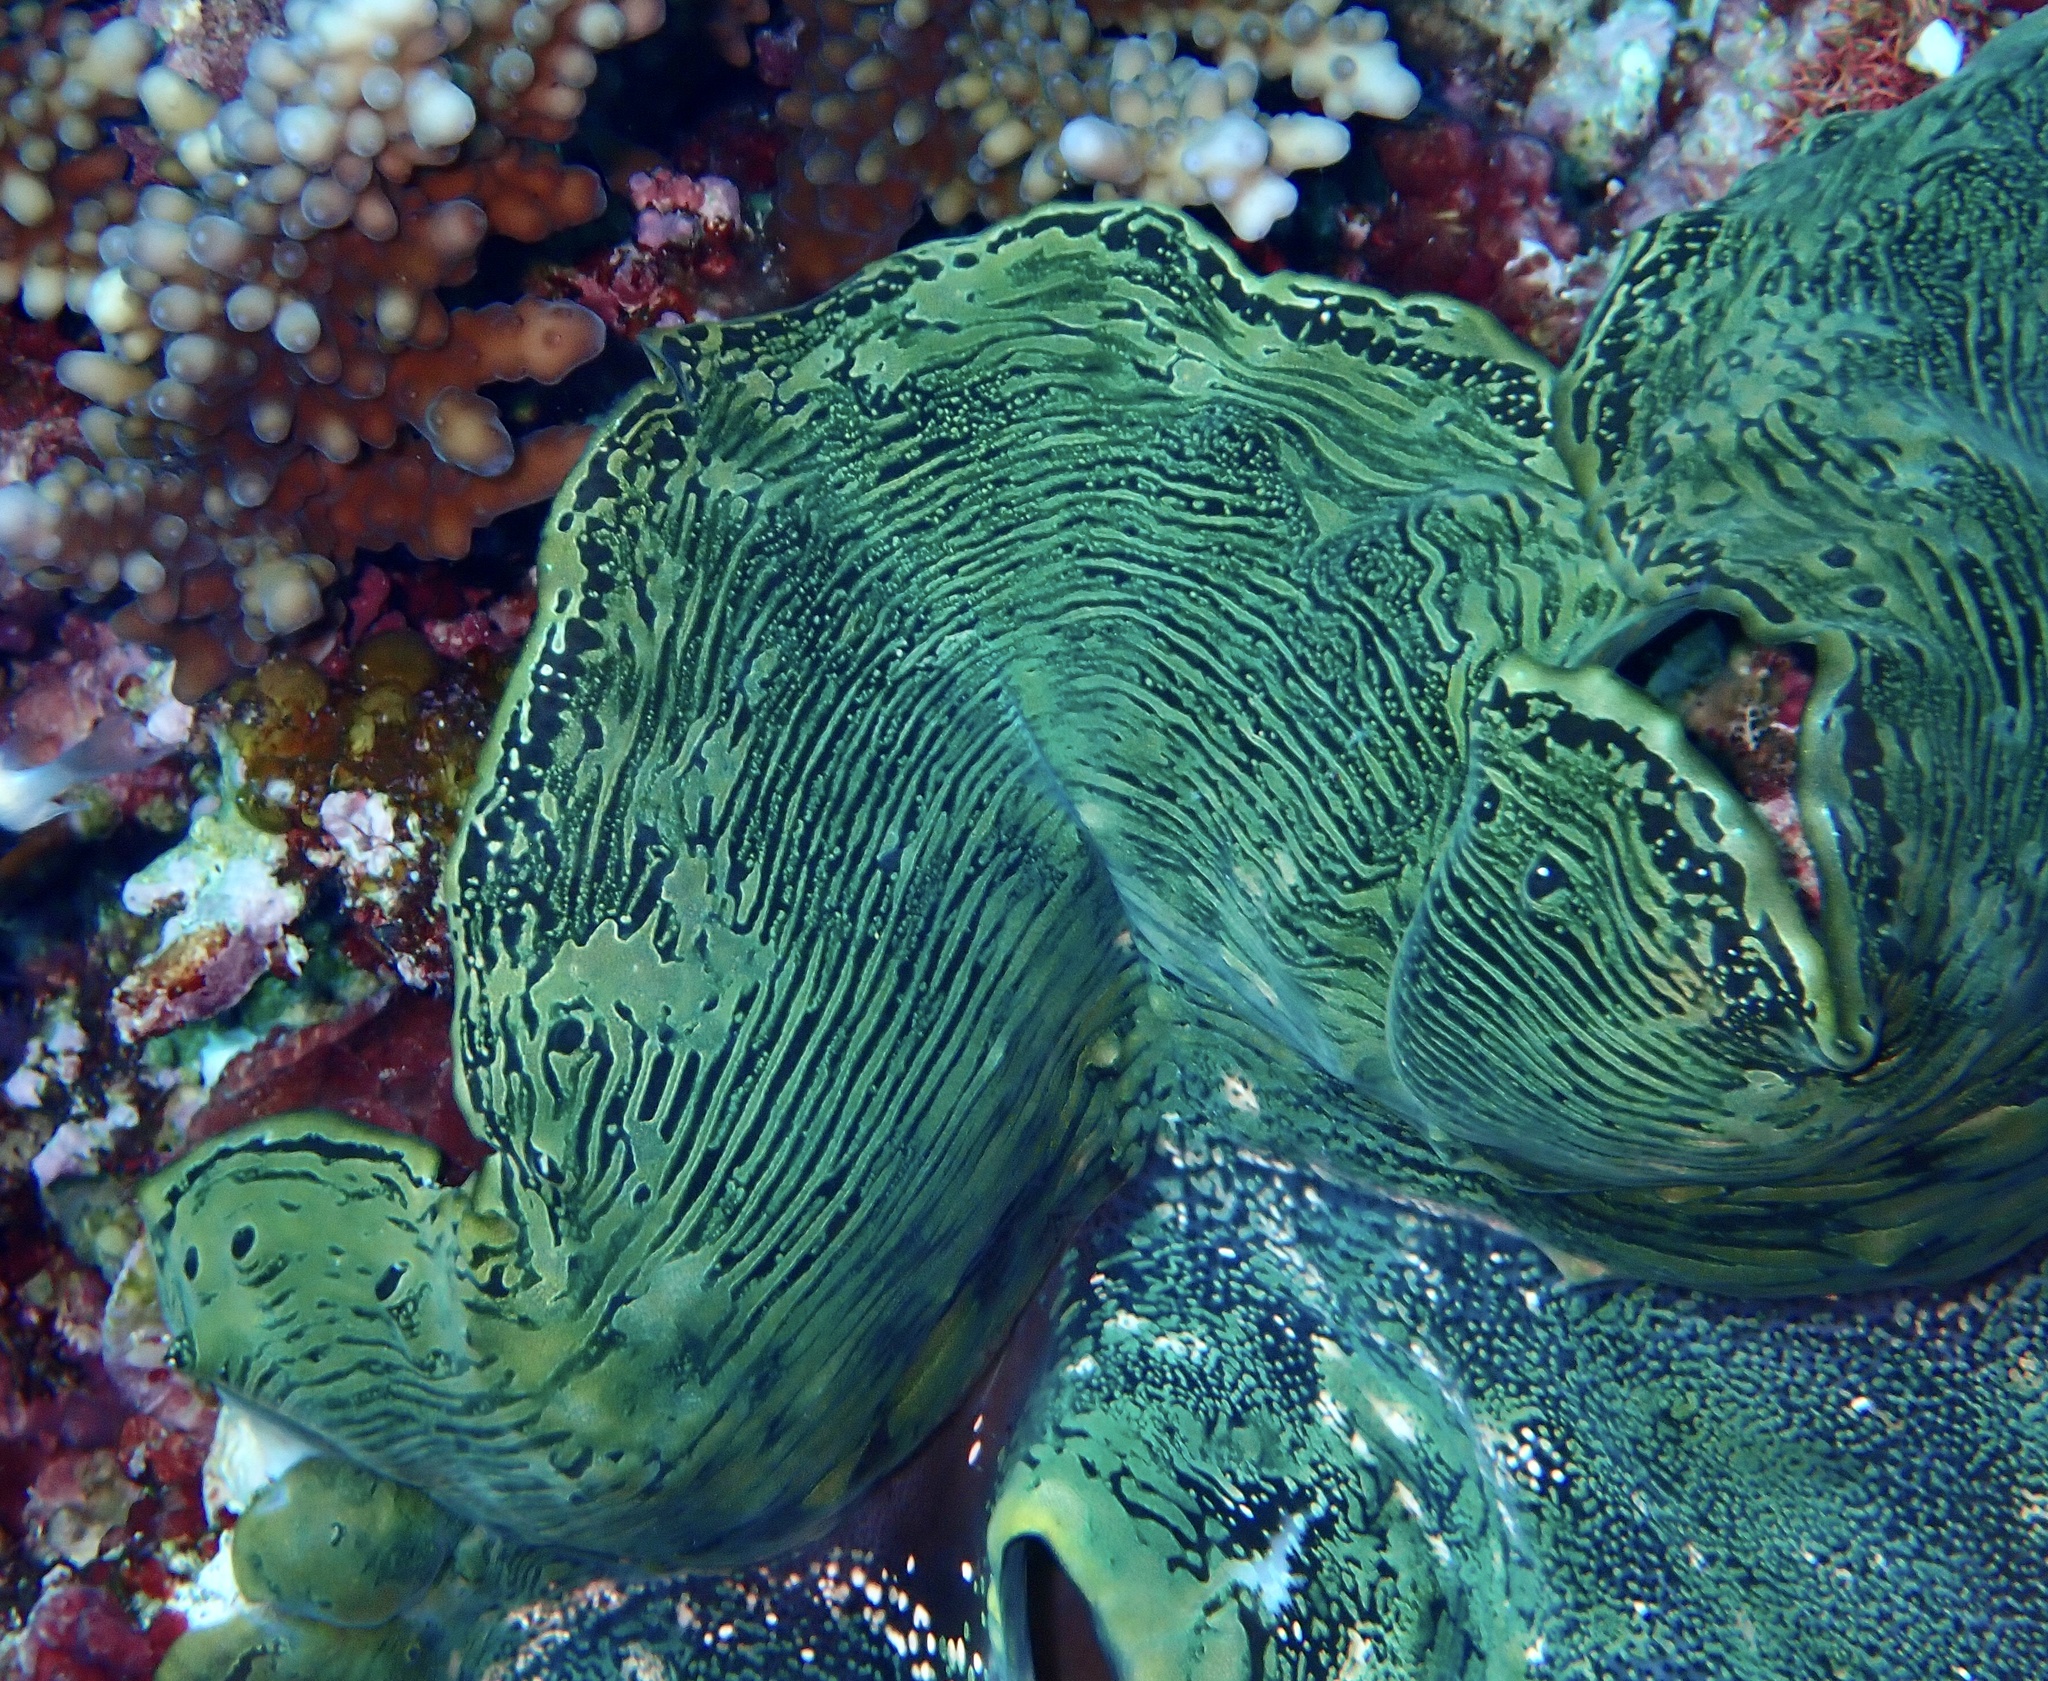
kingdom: Animalia
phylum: Mollusca
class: Bivalvia
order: Cardiida
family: Cardiidae
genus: Tridacna
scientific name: Tridacna squamosa
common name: Fluted clam
